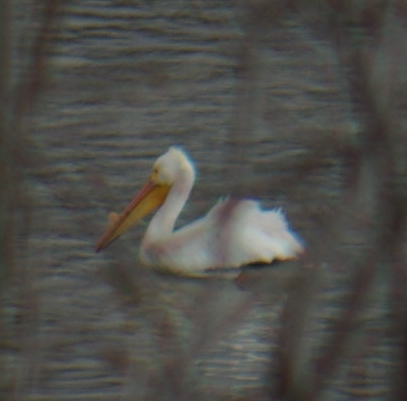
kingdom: Animalia
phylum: Chordata
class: Aves
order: Pelecaniformes
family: Pelecanidae
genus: Pelecanus
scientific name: Pelecanus erythrorhynchos
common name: American white pelican
